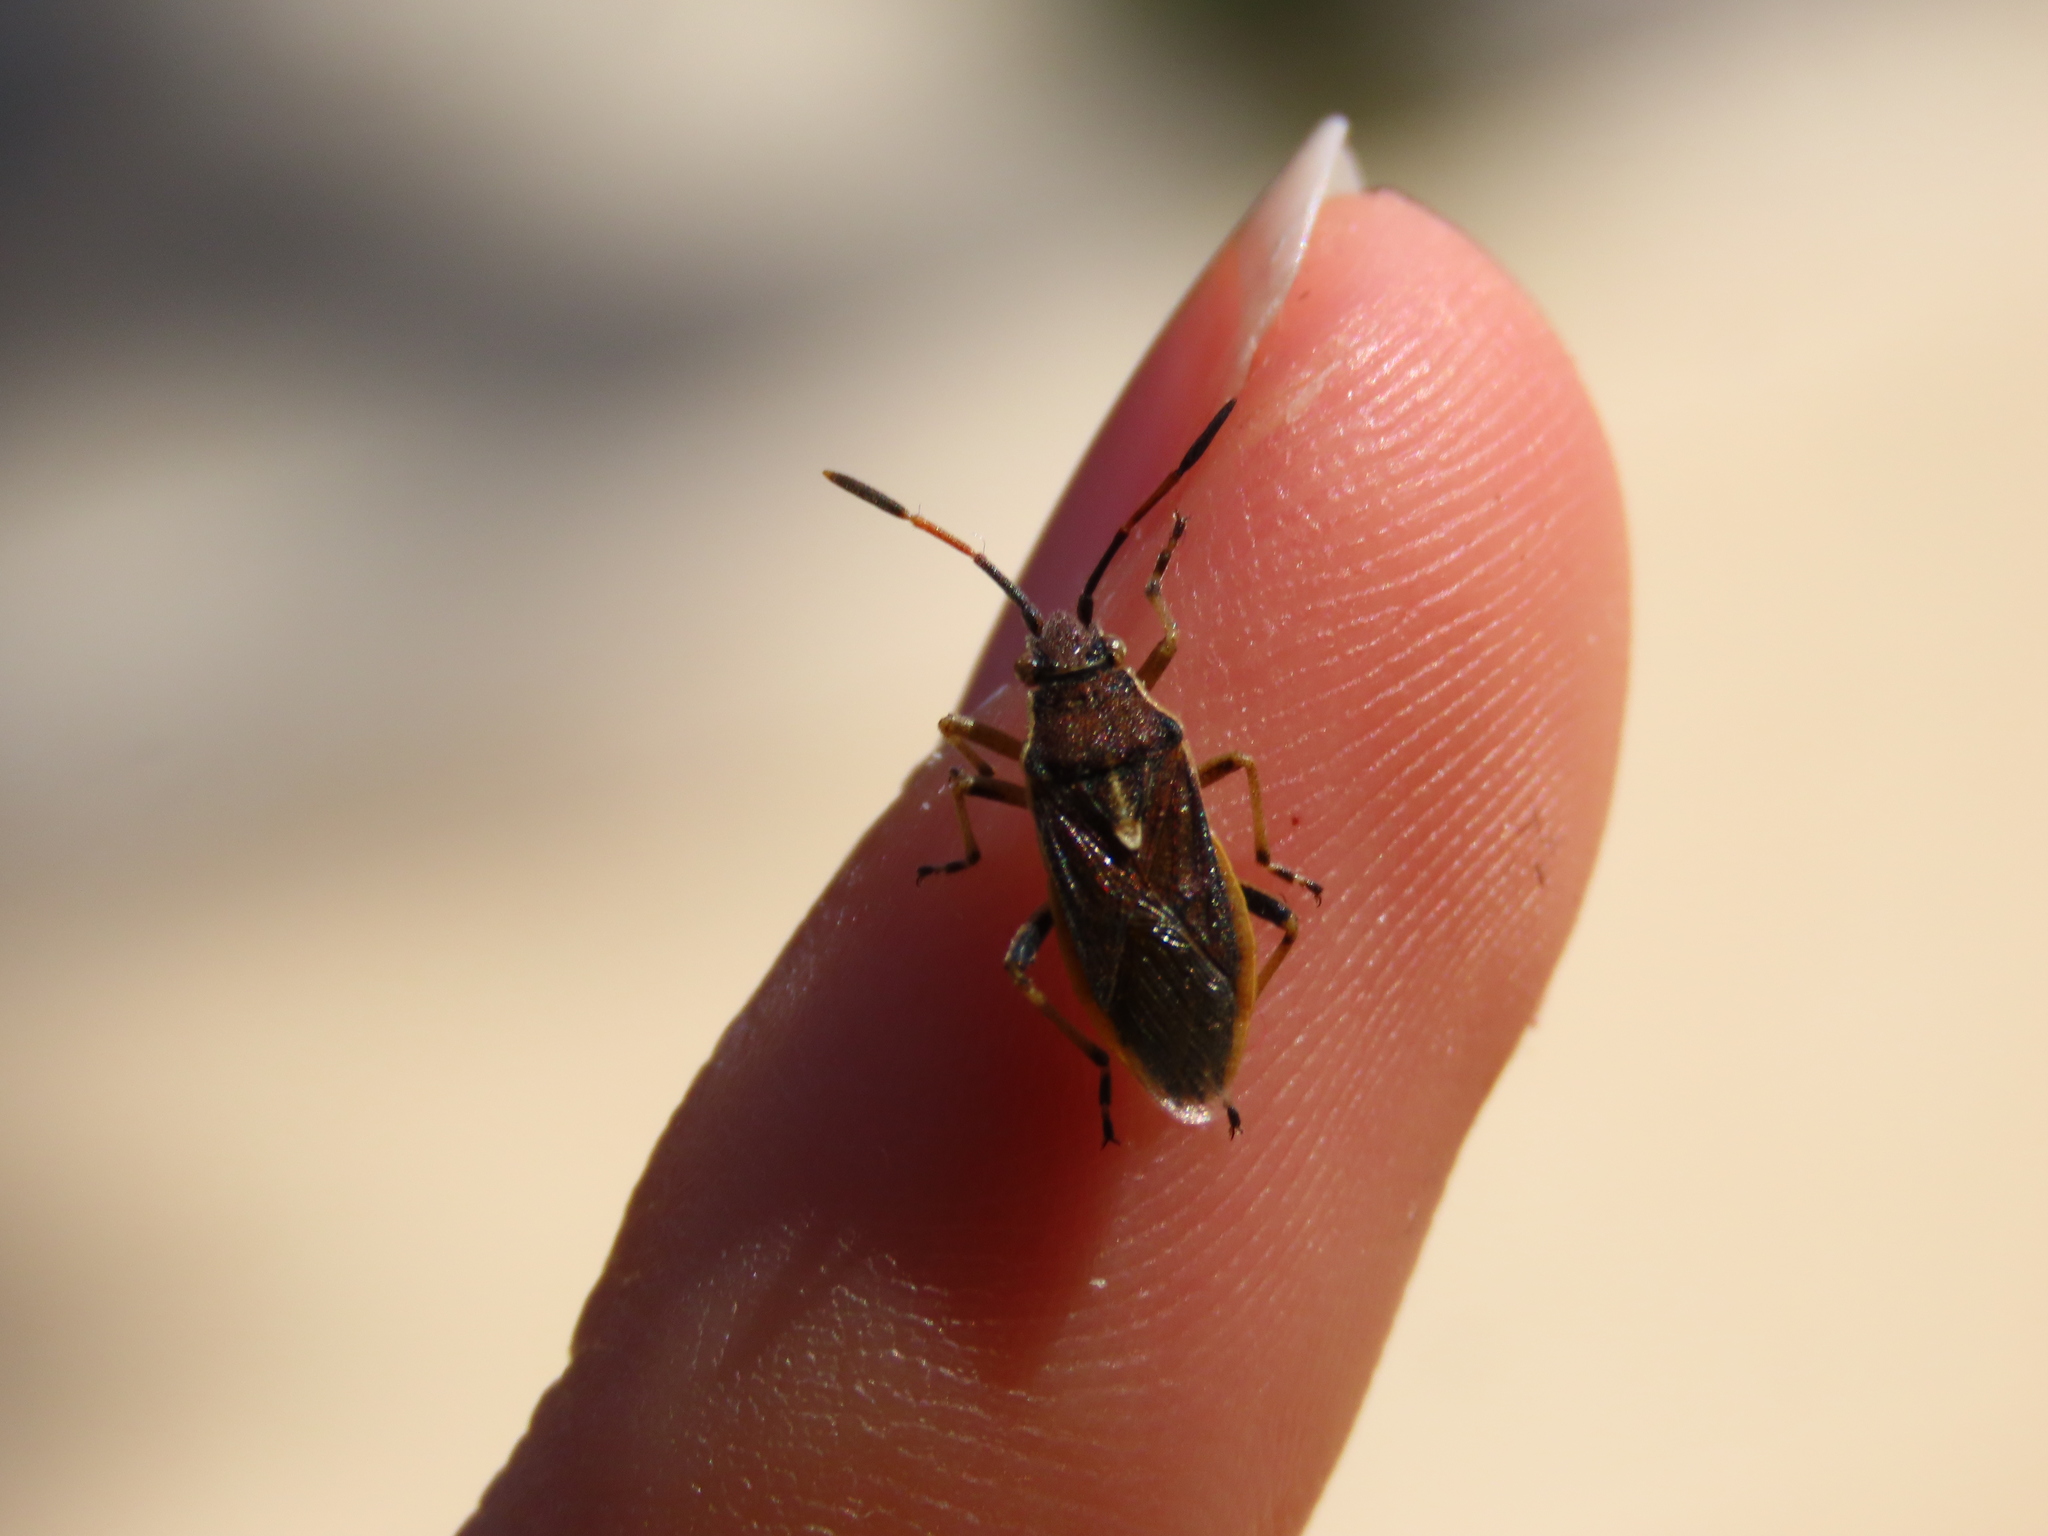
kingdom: Animalia
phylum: Arthropoda
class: Insecta
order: Hemiptera
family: Rhopalidae
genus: Maccevethus
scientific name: Maccevethus
